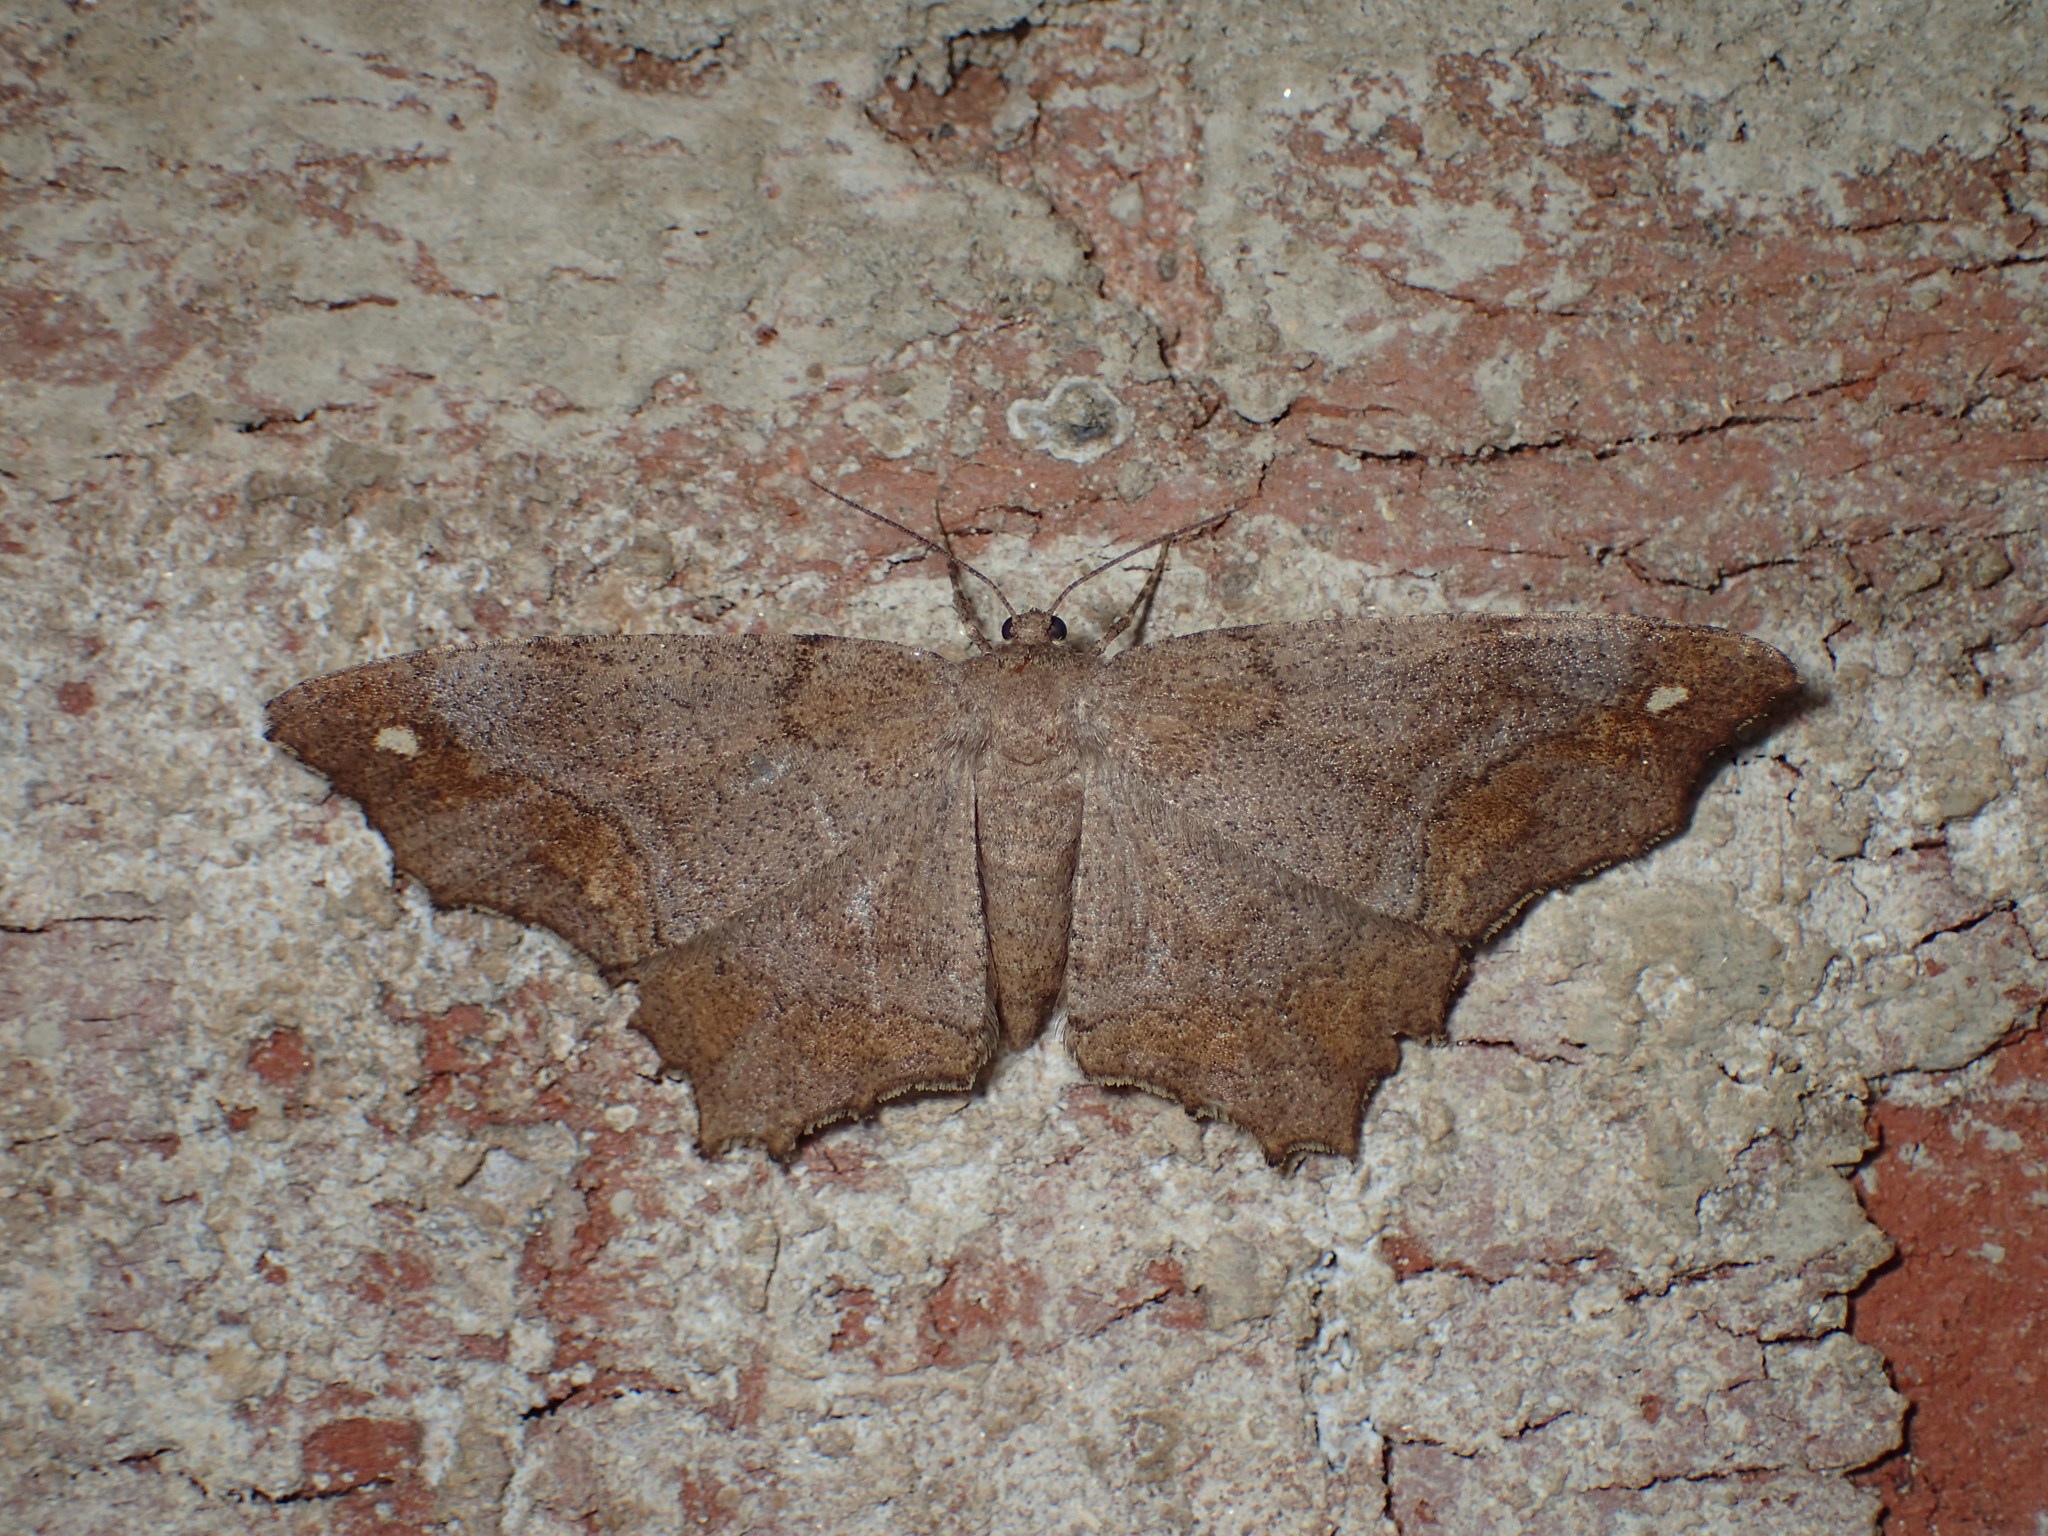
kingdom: Animalia
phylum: Arthropoda
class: Insecta
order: Lepidoptera
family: Geometridae
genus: Hypagyrtis
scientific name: Hypagyrtis
